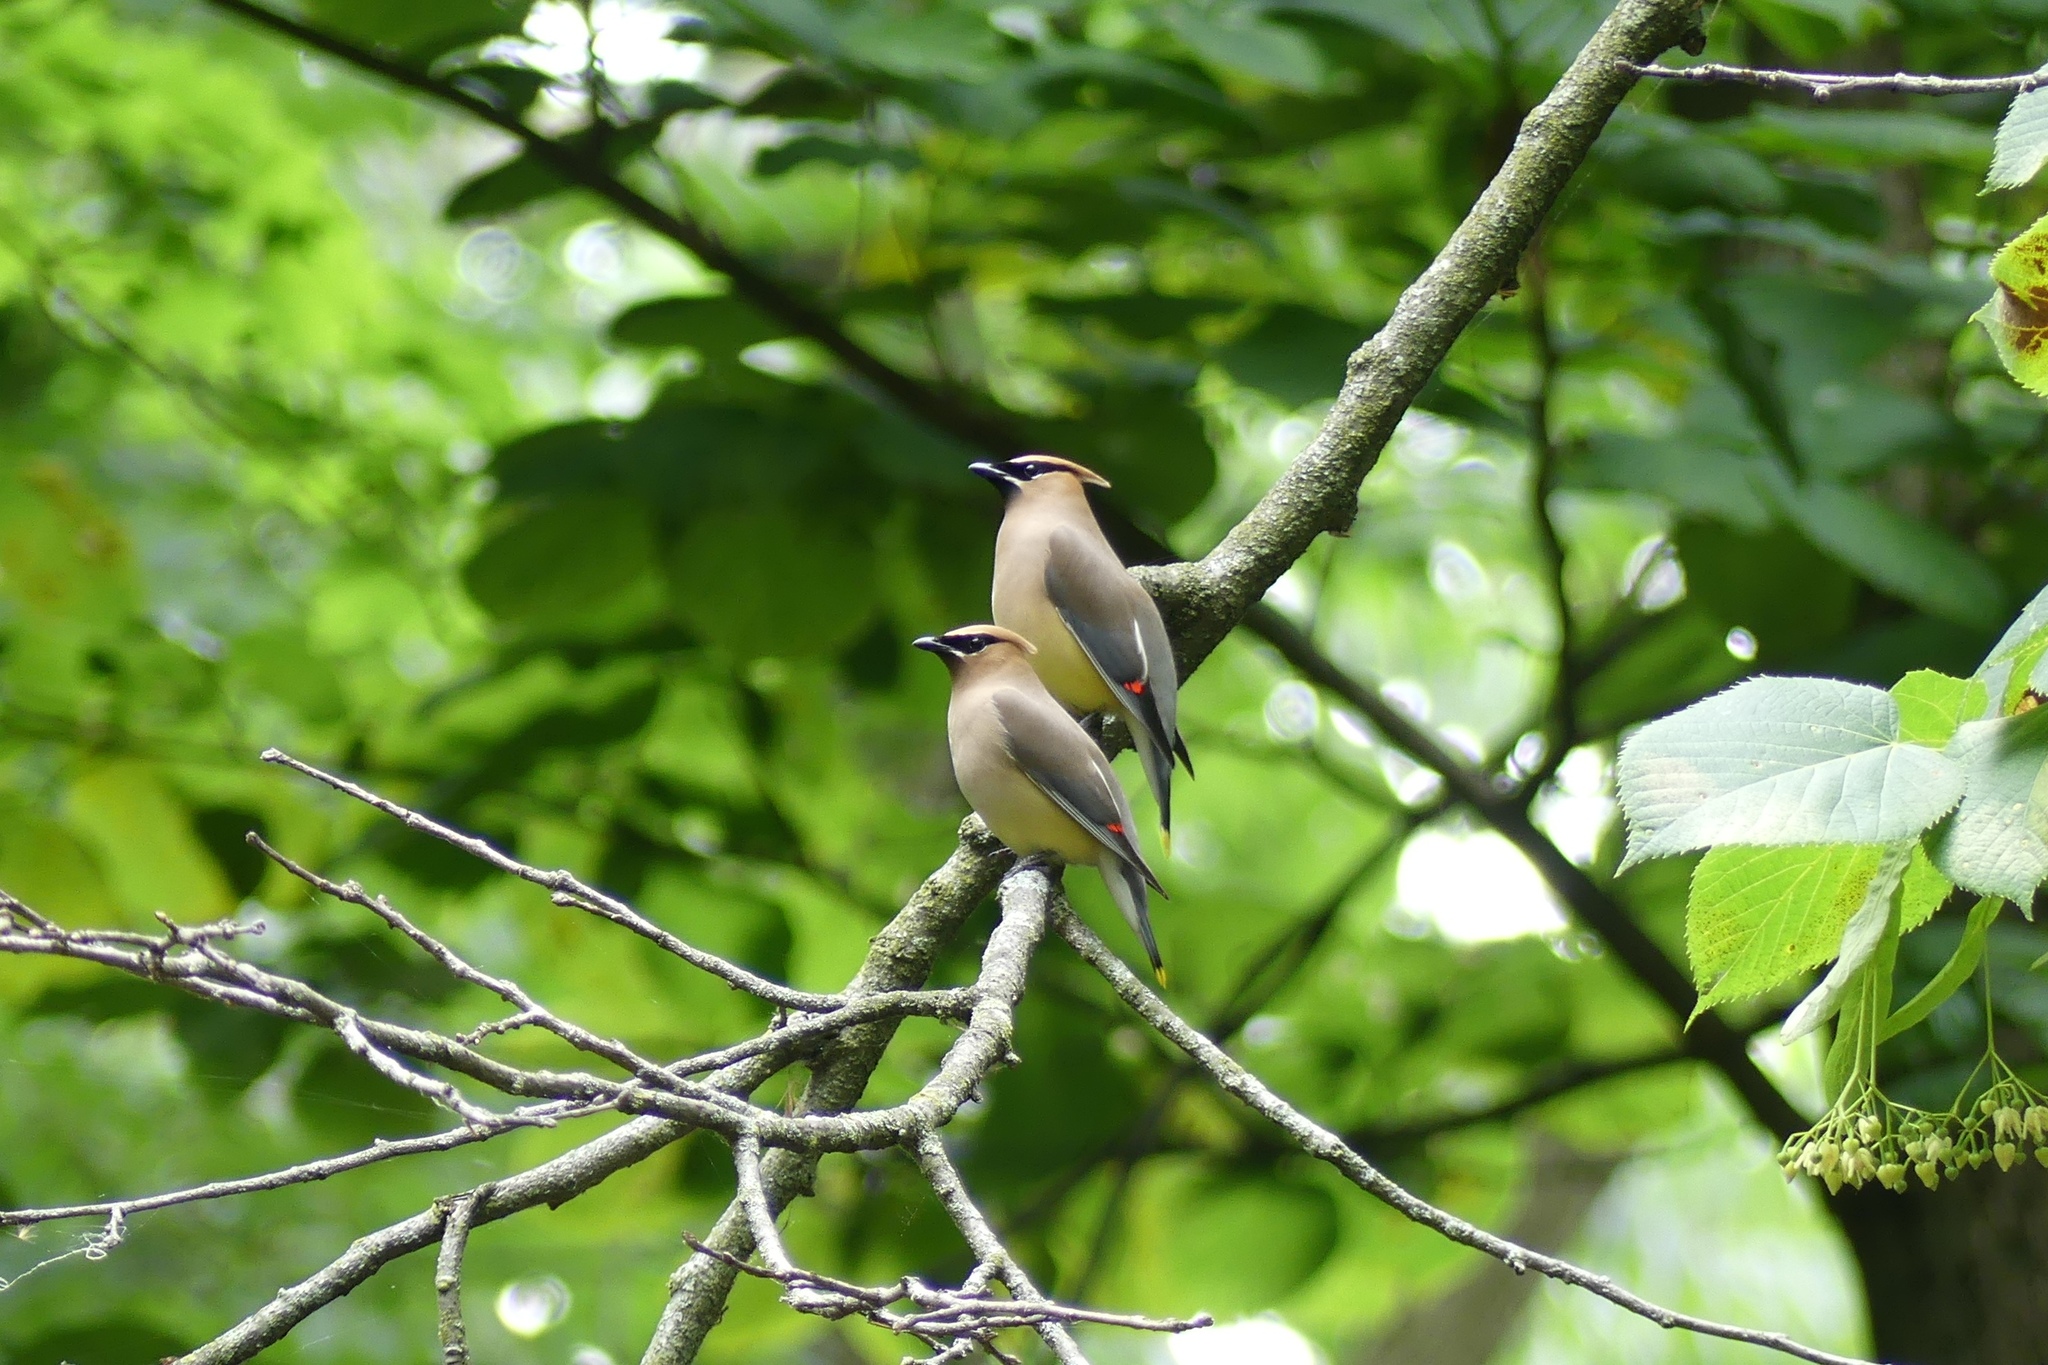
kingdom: Animalia
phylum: Chordata
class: Aves
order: Passeriformes
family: Bombycillidae
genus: Bombycilla
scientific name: Bombycilla cedrorum
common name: Cedar waxwing
